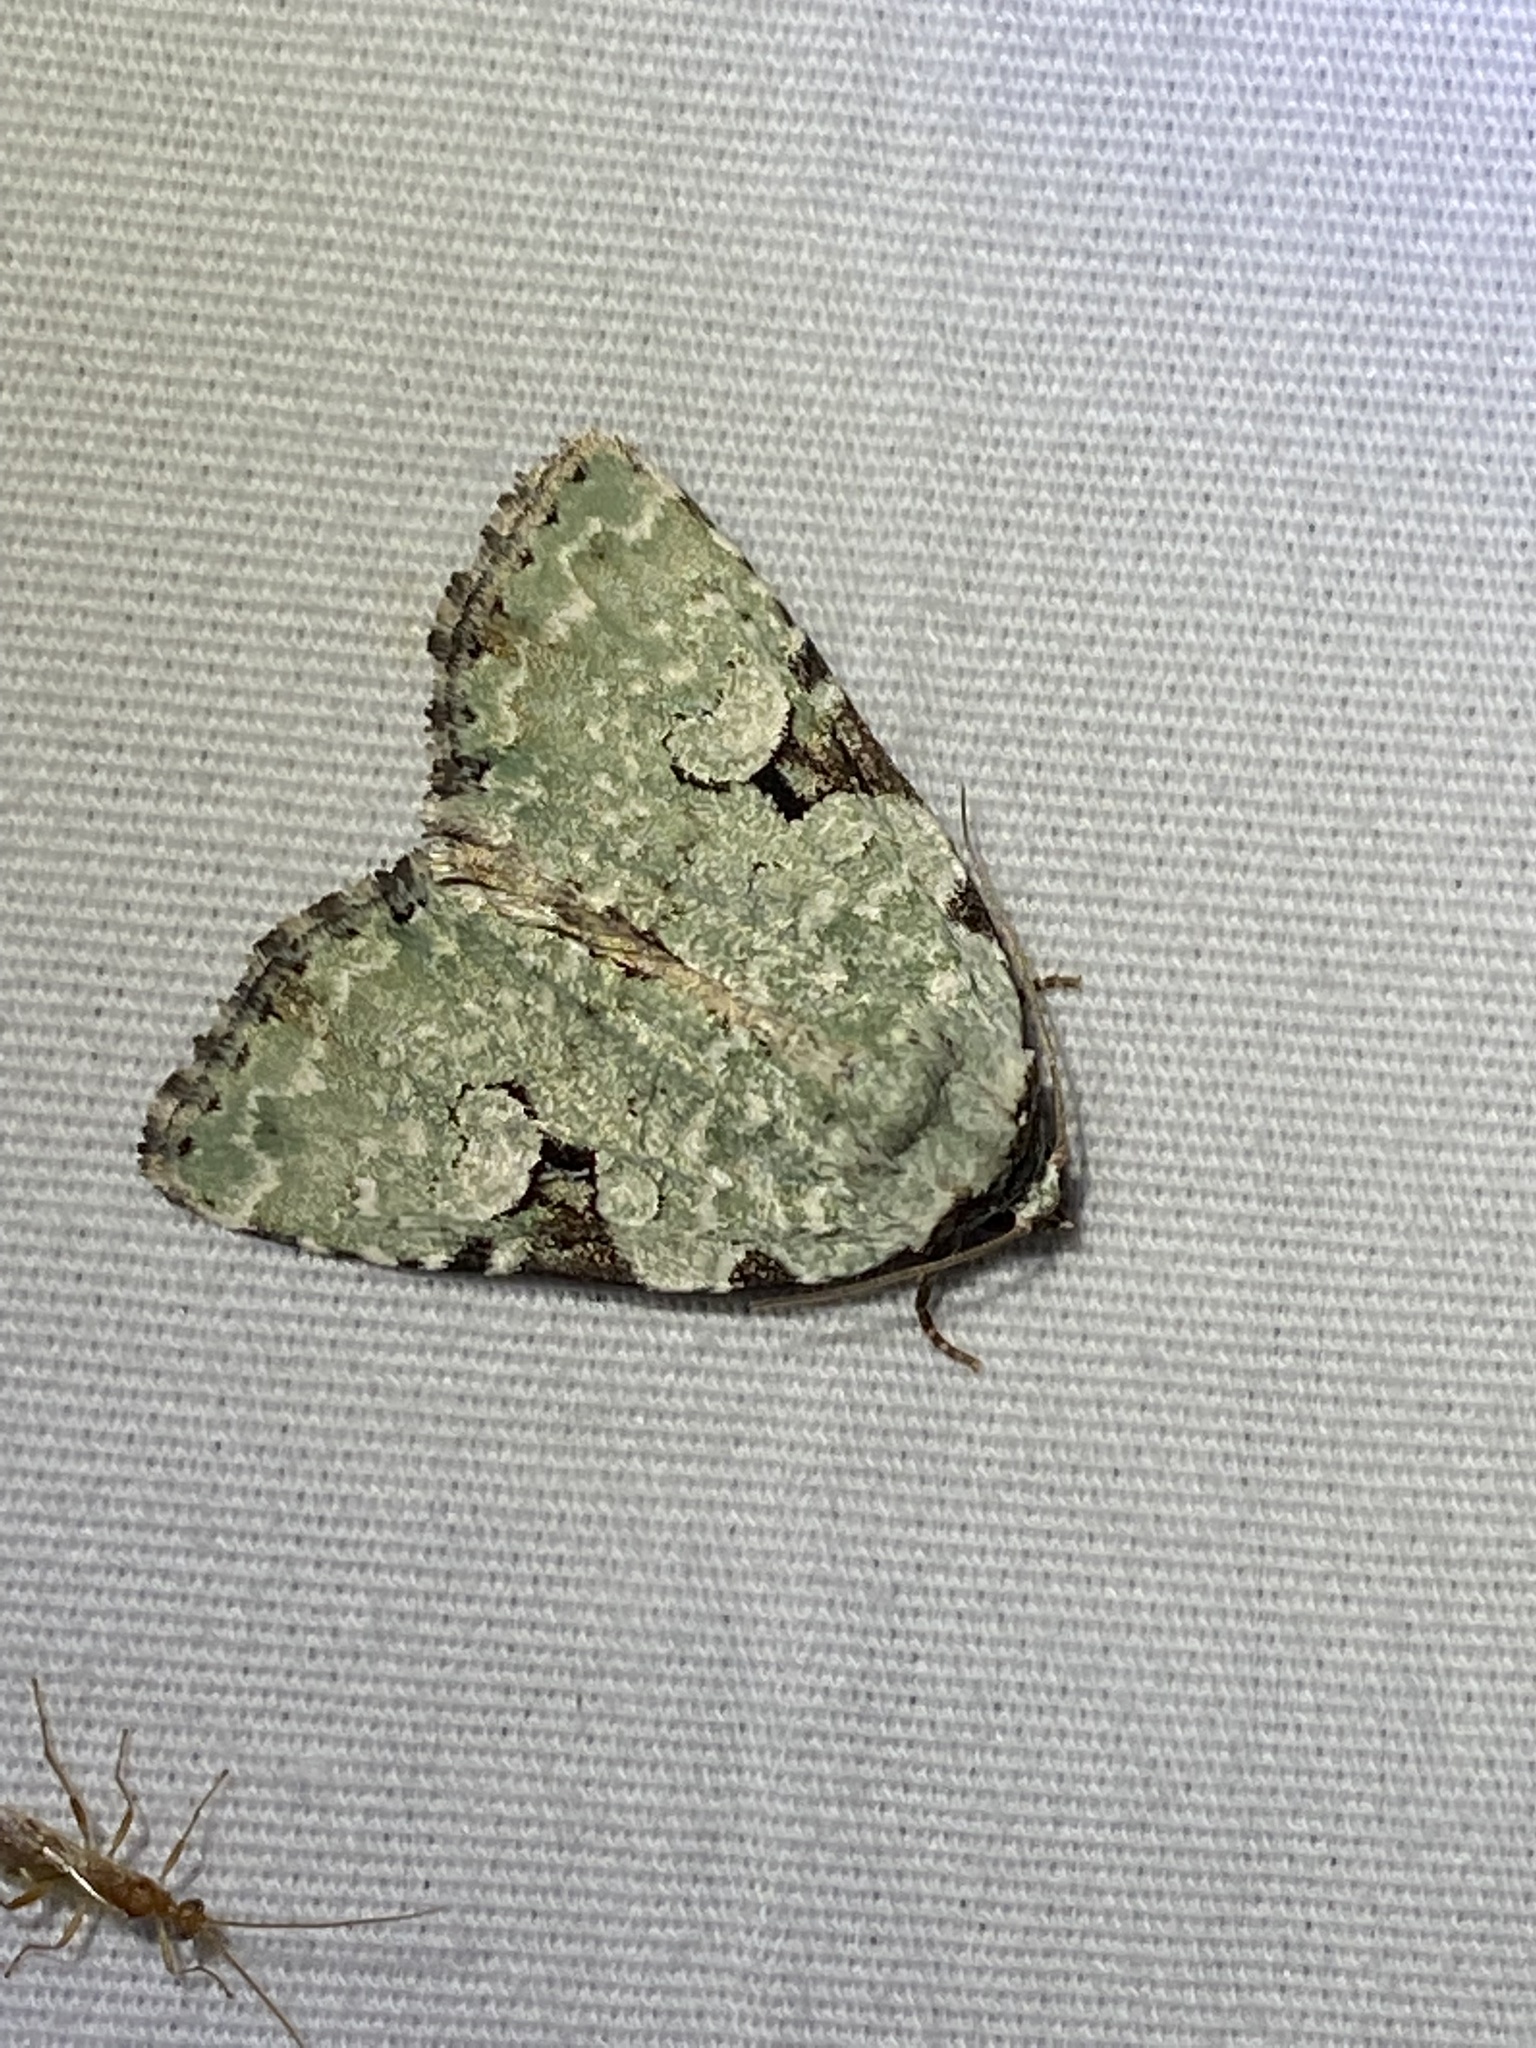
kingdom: Animalia
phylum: Arthropoda
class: Insecta
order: Lepidoptera
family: Noctuidae
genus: Leuconycta
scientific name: Leuconycta diphteroides
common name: Green leuconycta moth
